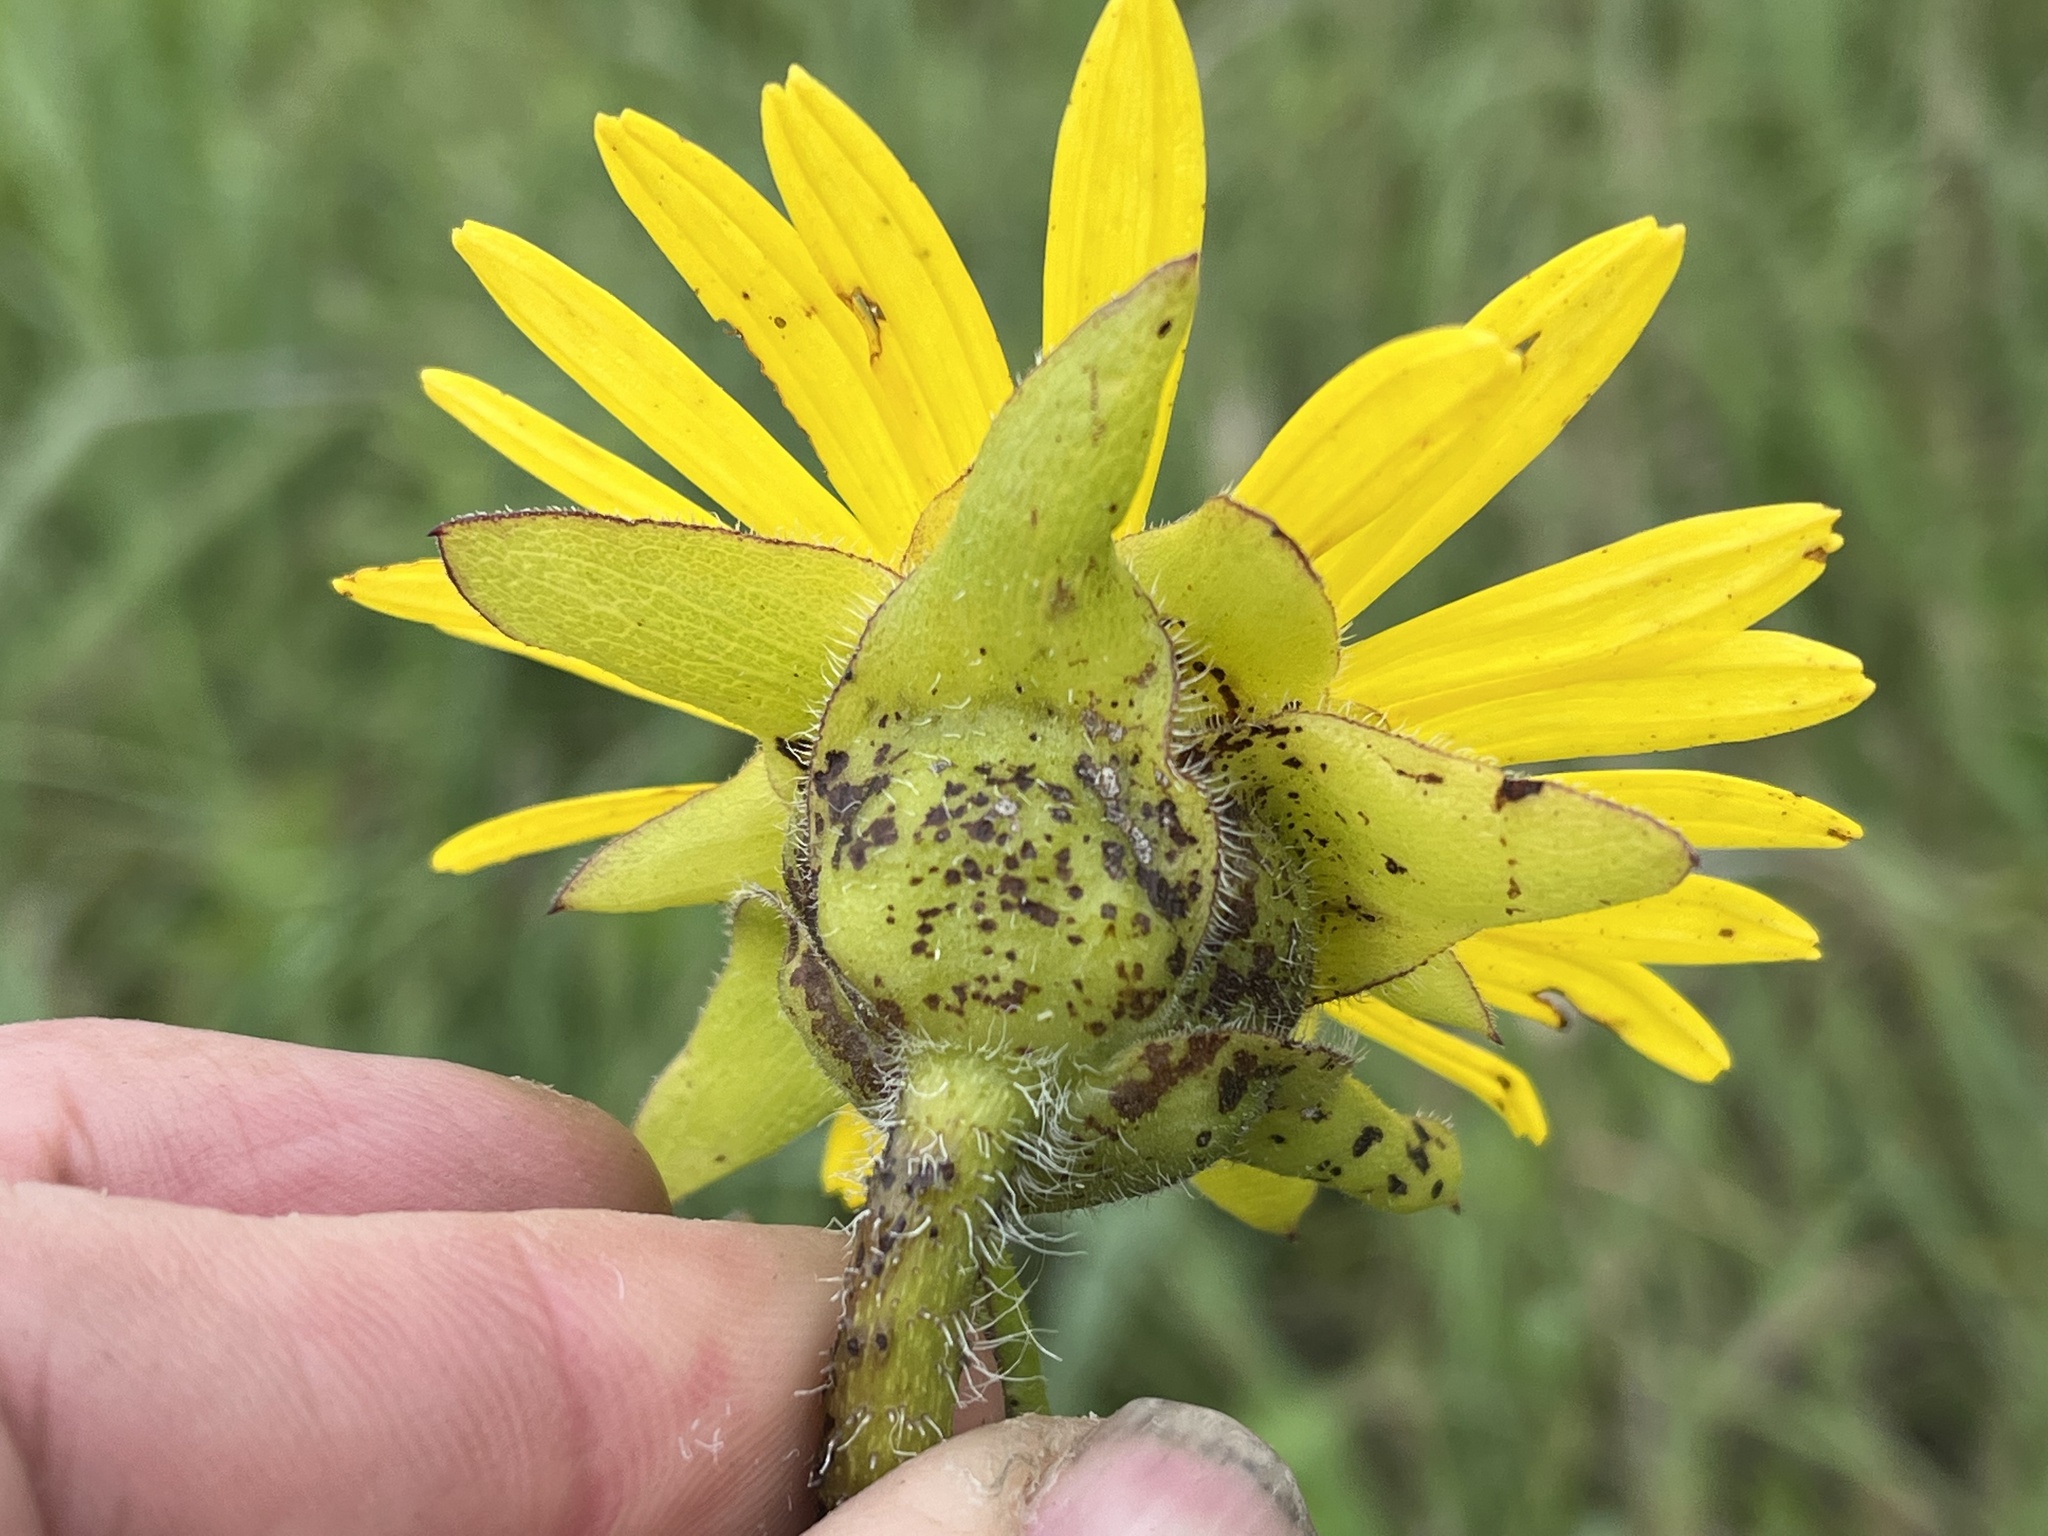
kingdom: Plantae
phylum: Tracheophyta
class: Magnoliopsida
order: Asterales
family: Asteraceae
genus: Silphium
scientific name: Silphium laciniatum
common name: Polarplant
